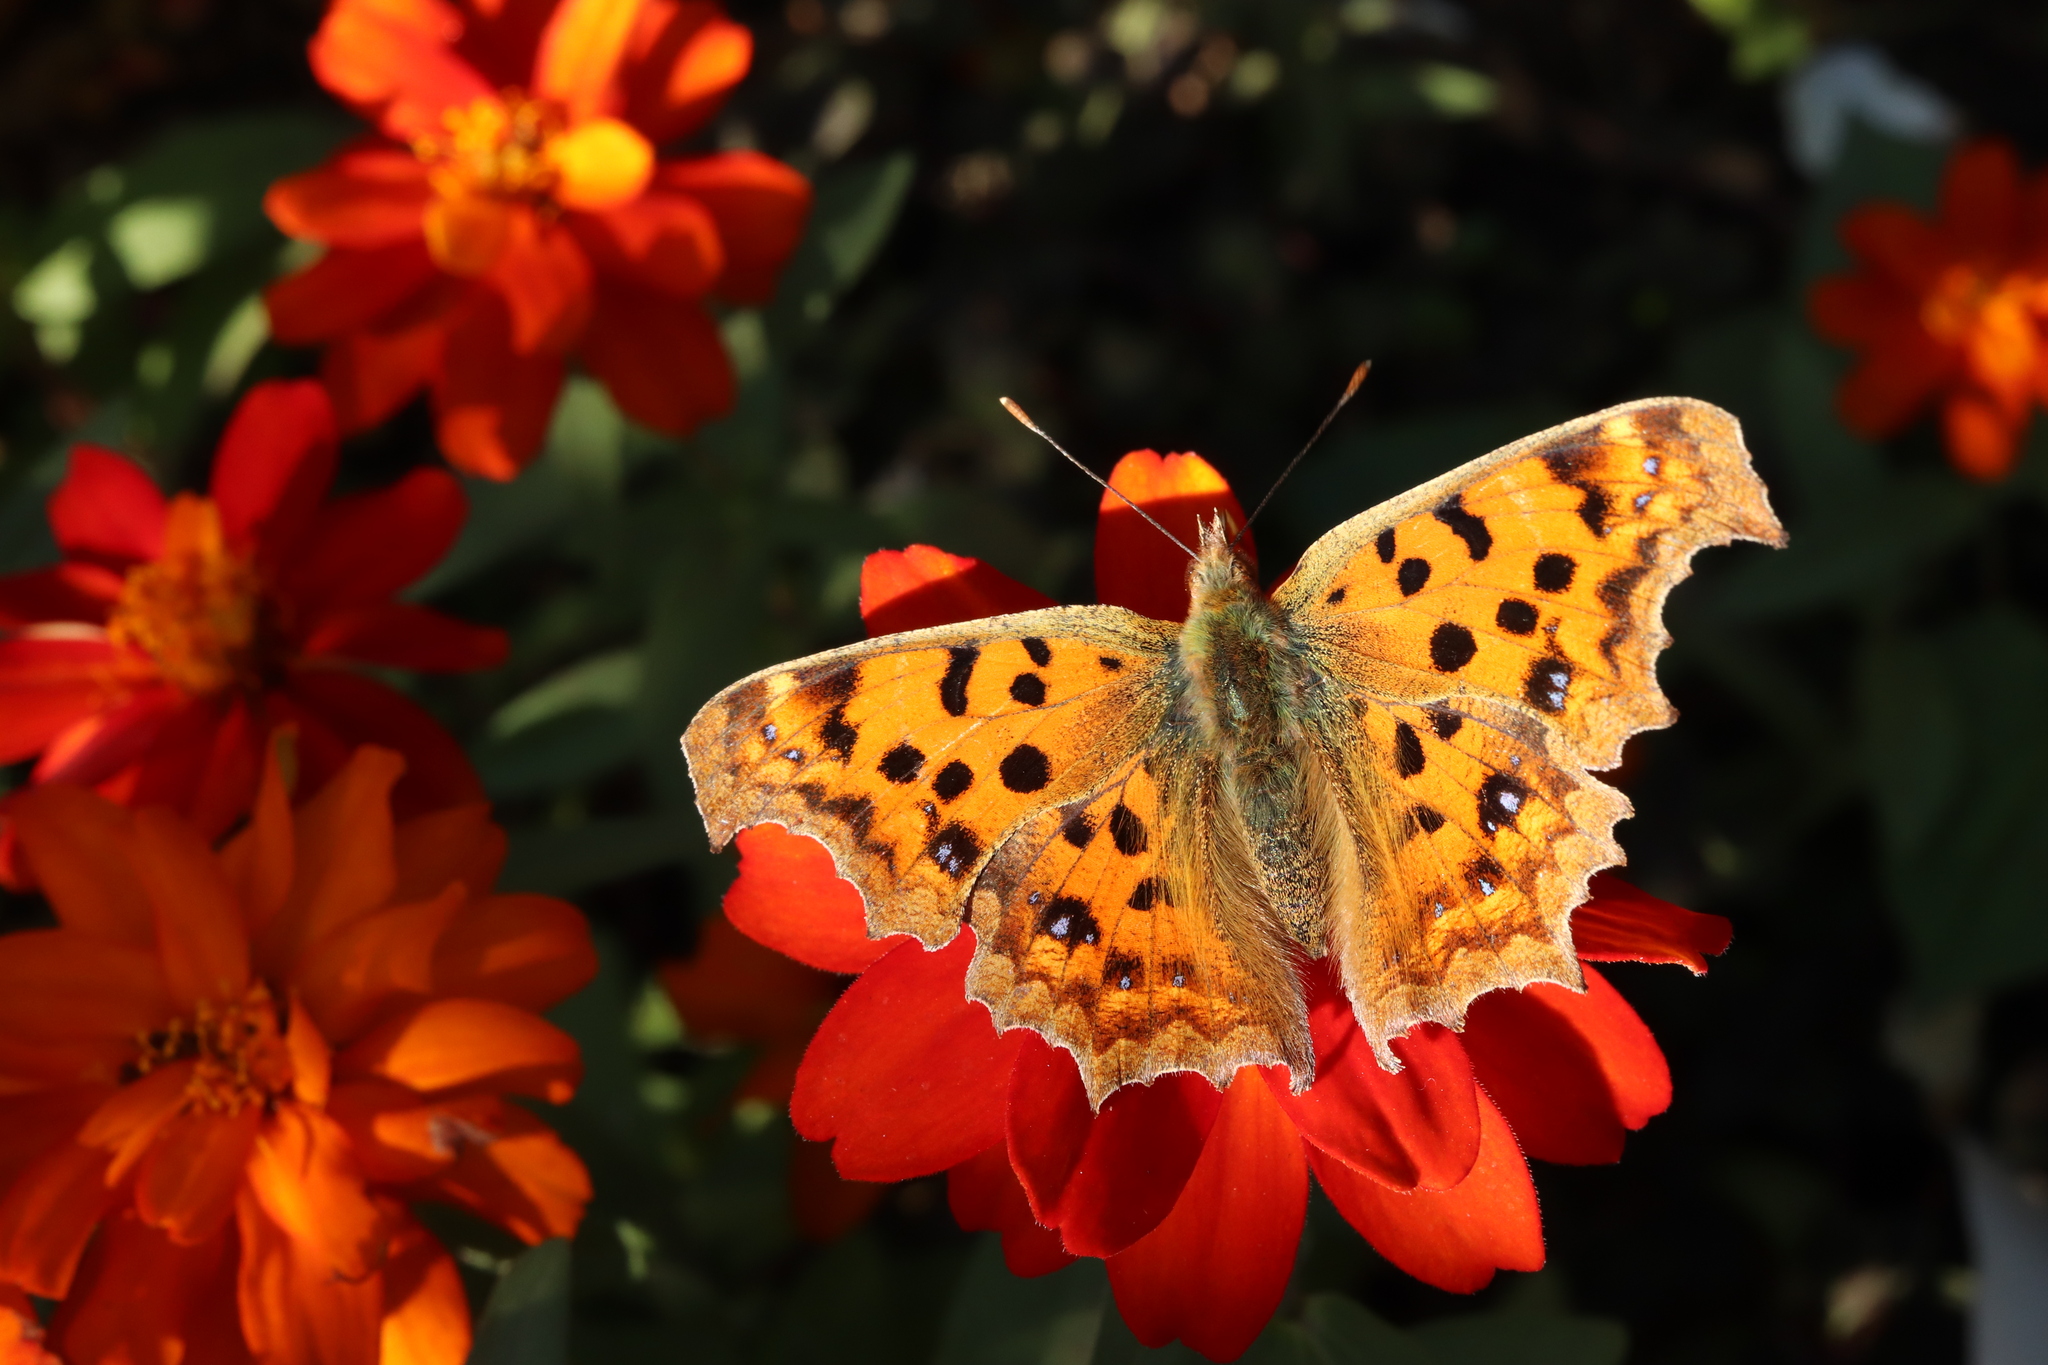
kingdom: Animalia
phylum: Arthropoda
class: Insecta
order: Lepidoptera
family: Nymphalidae
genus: Polygonia
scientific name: Polygonia c-aureum
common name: Asian comma
